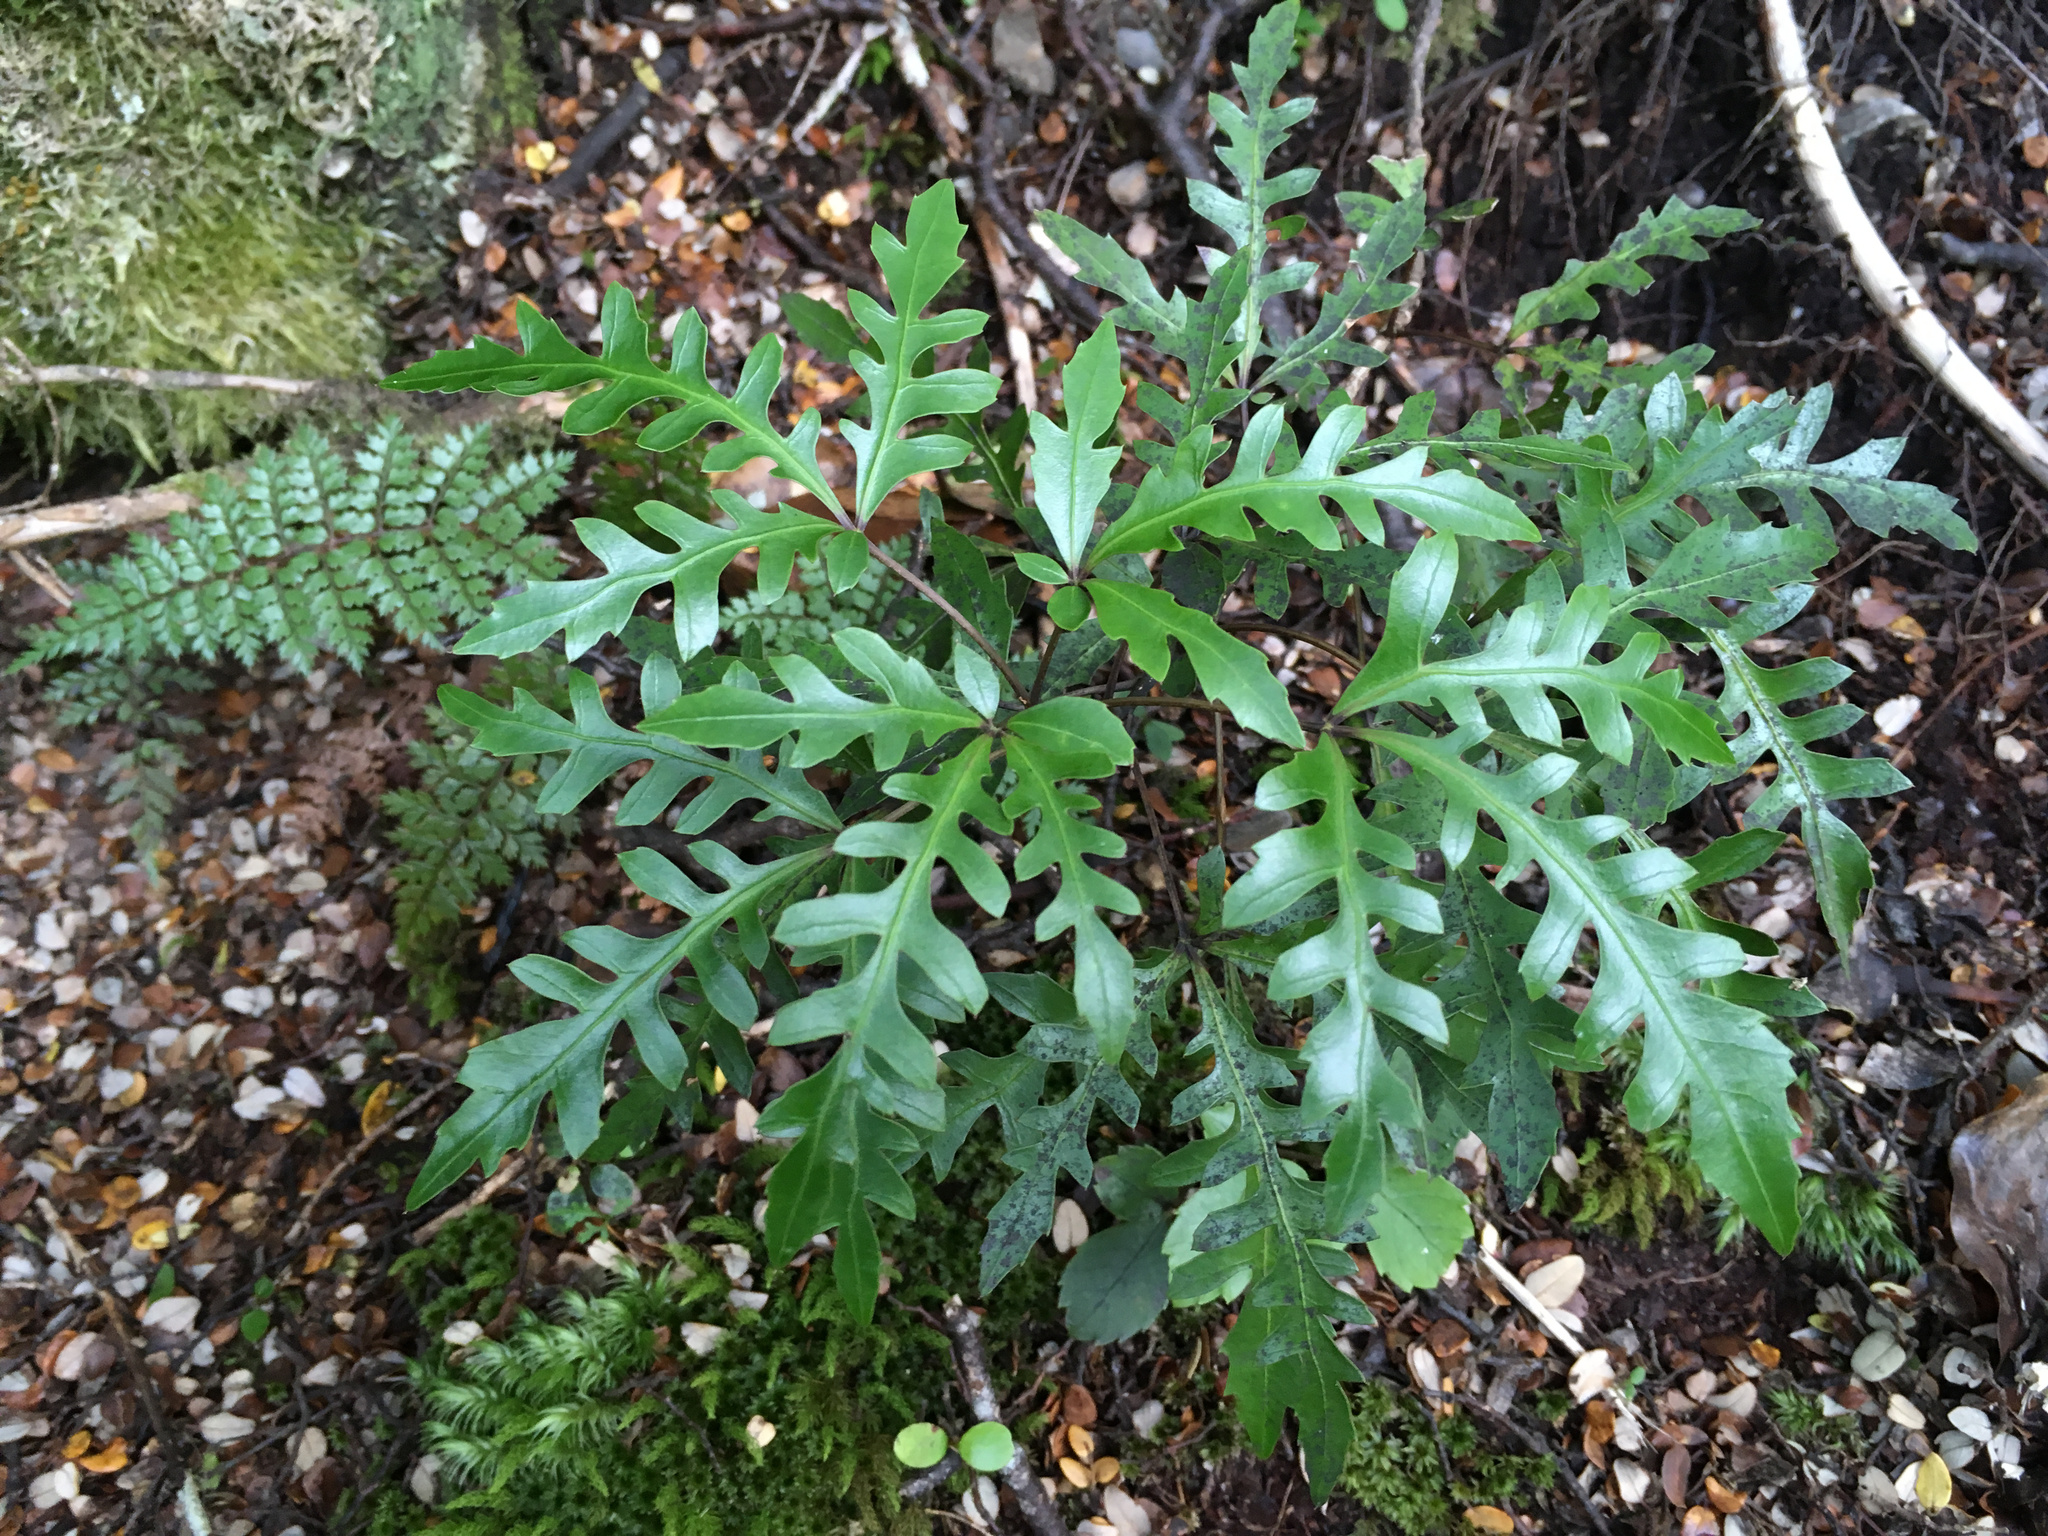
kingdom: Plantae
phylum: Tracheophyta
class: Magnoliopsida
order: Apiales
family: Araliaceae
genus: Raukaua
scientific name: Raukaua simplex
